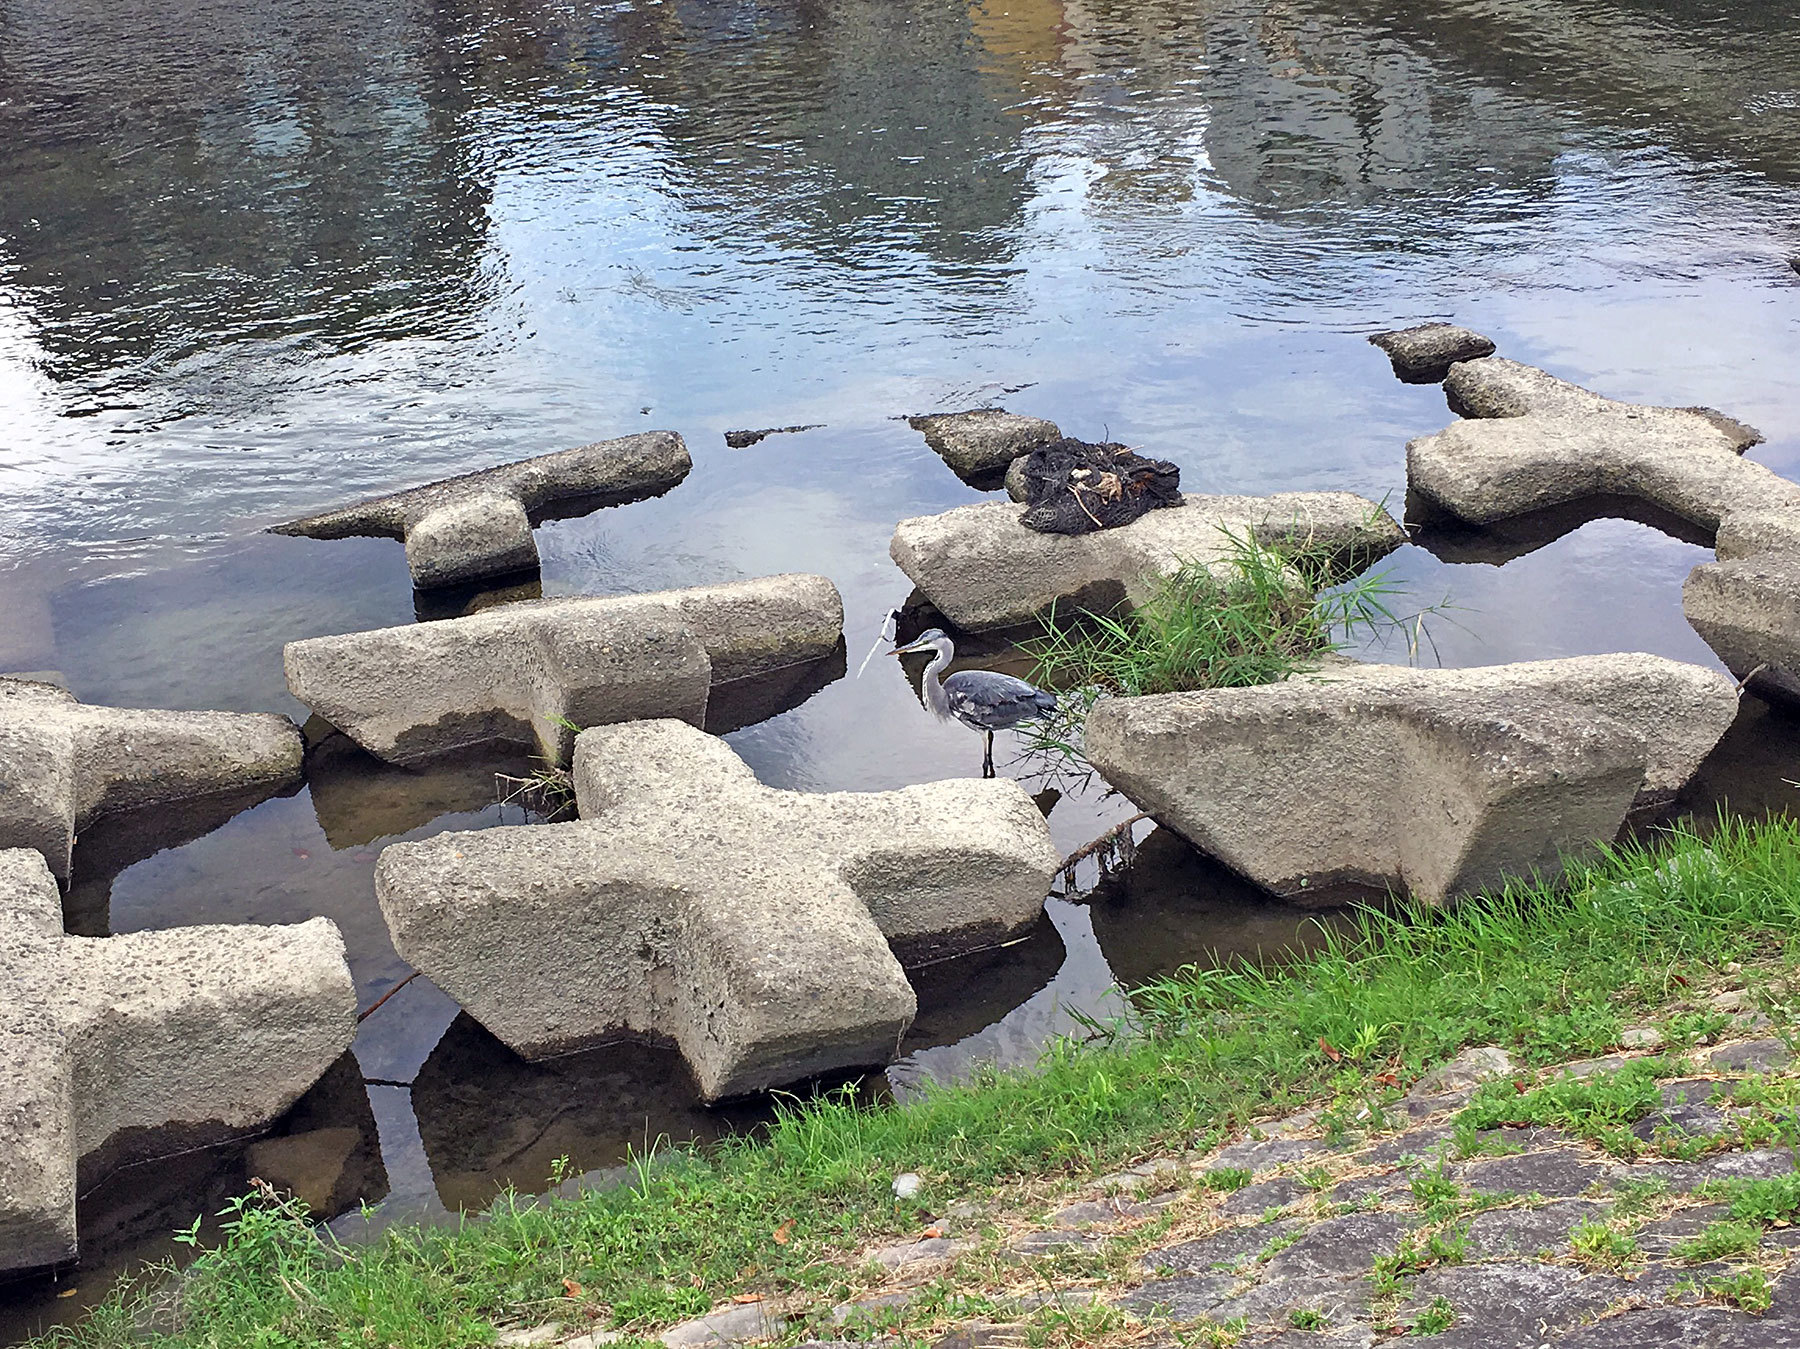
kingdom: Animalia
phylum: Chordata
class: Aves
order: Pelecaniformes
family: Ardeidae
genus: Ardea
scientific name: Ardea cinerea
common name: Grey heron
